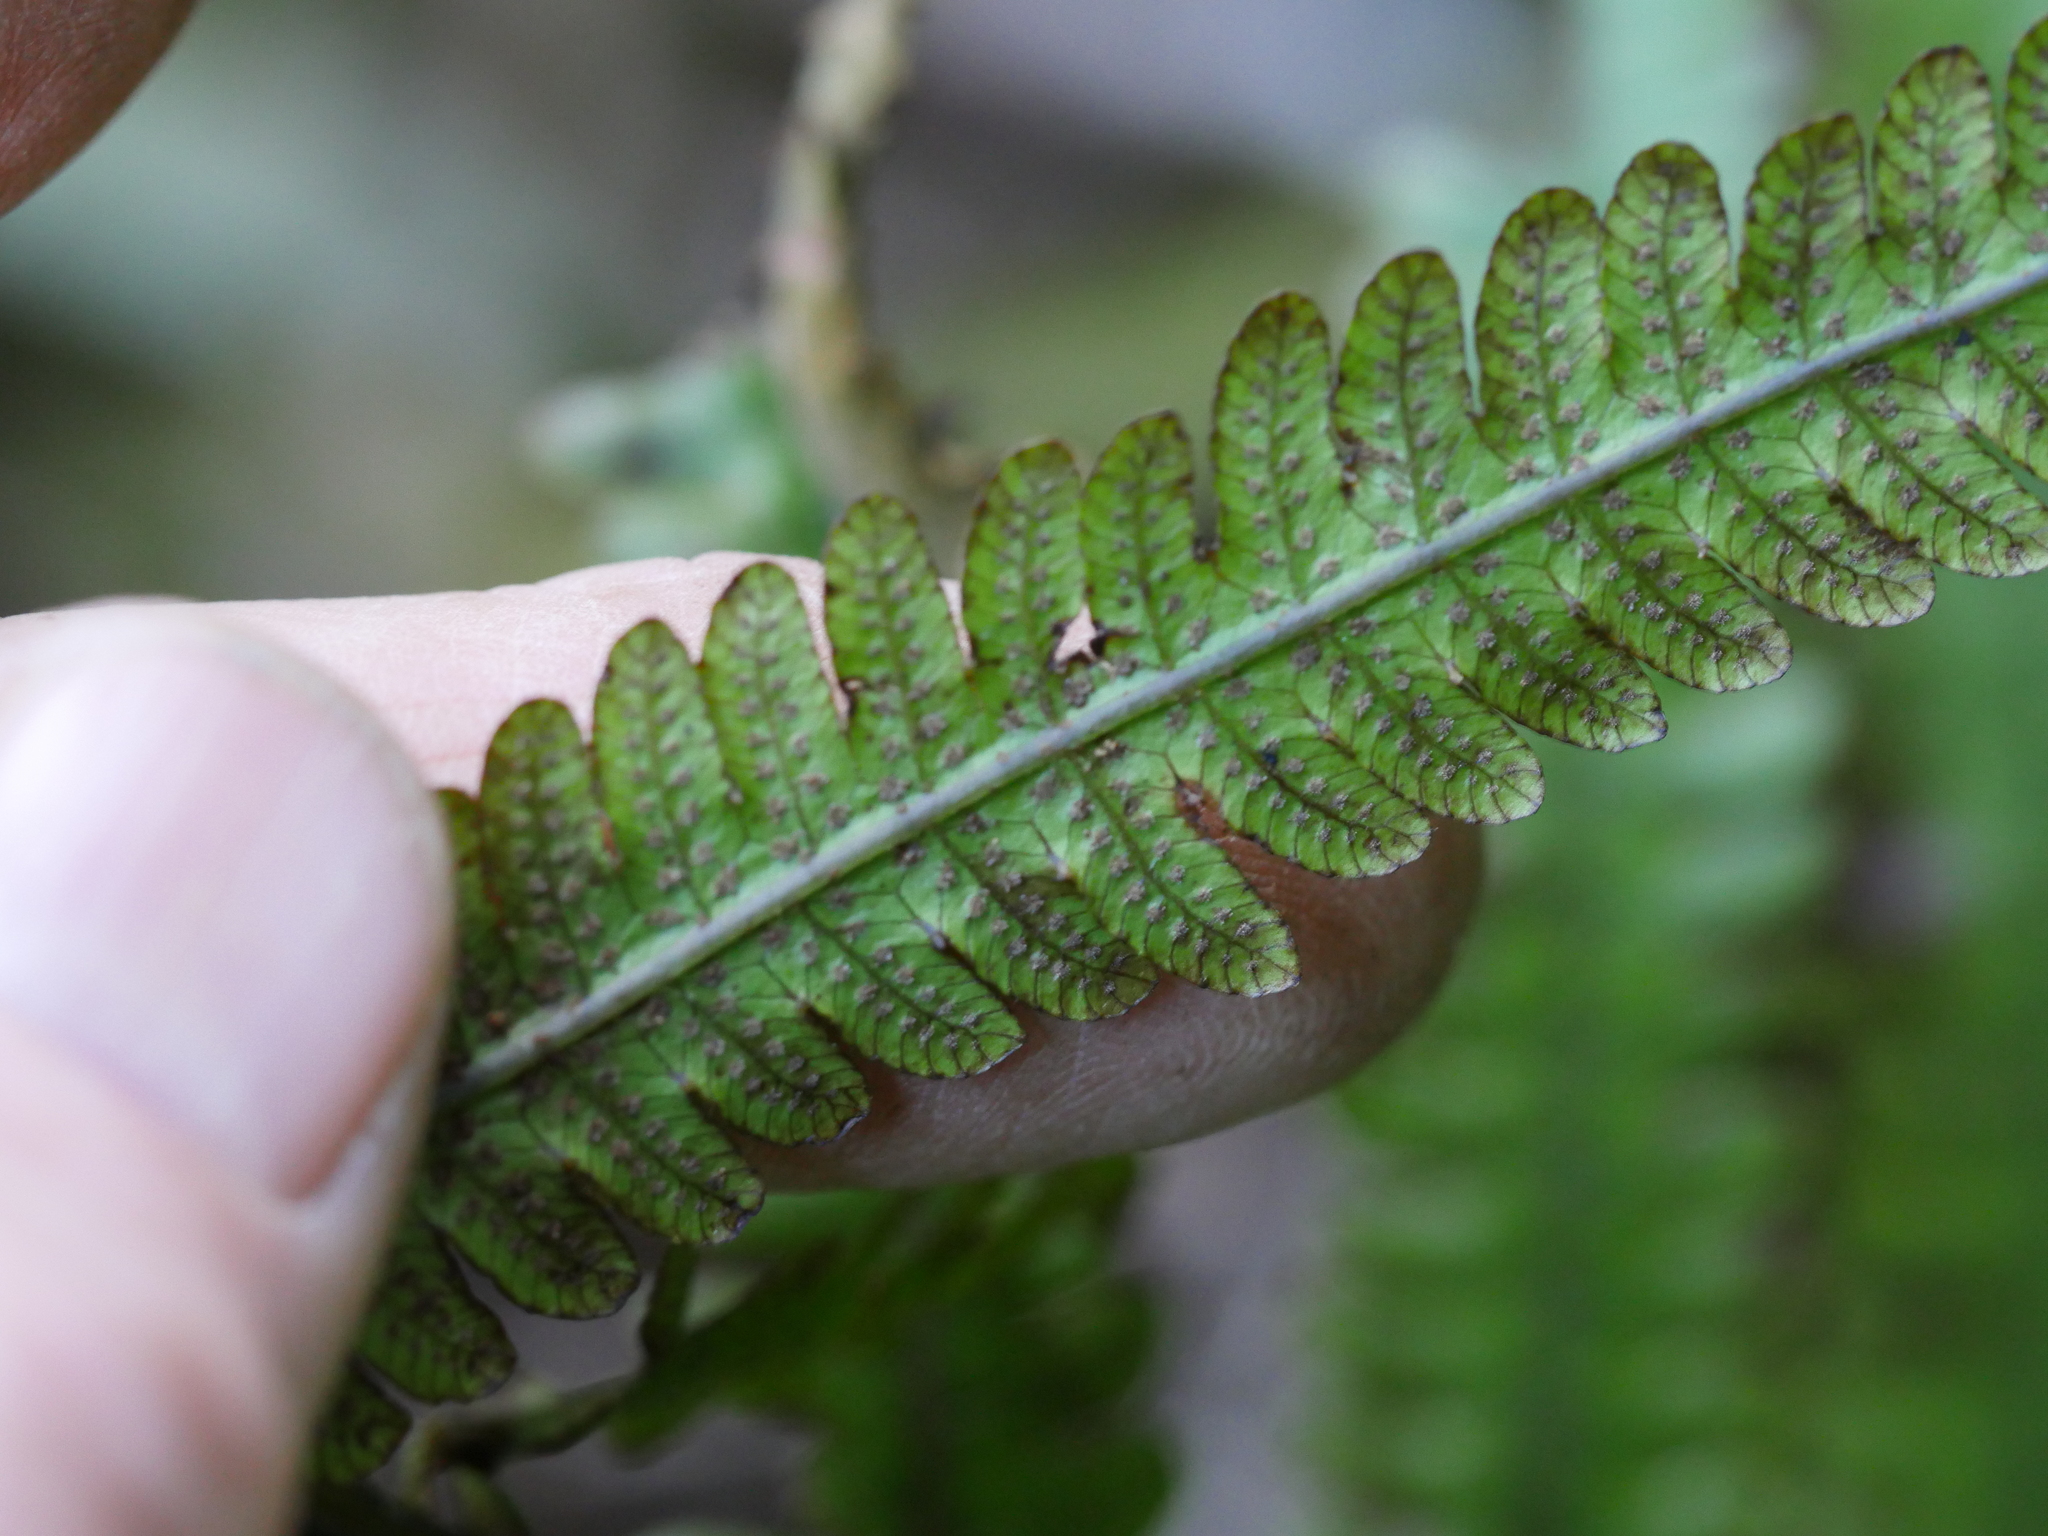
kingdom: Plantae
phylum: Tracheophyta
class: Polypodiopsida
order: Polypodiales
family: Thelypteridaceae
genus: Pakau
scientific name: Pakau pennigera
